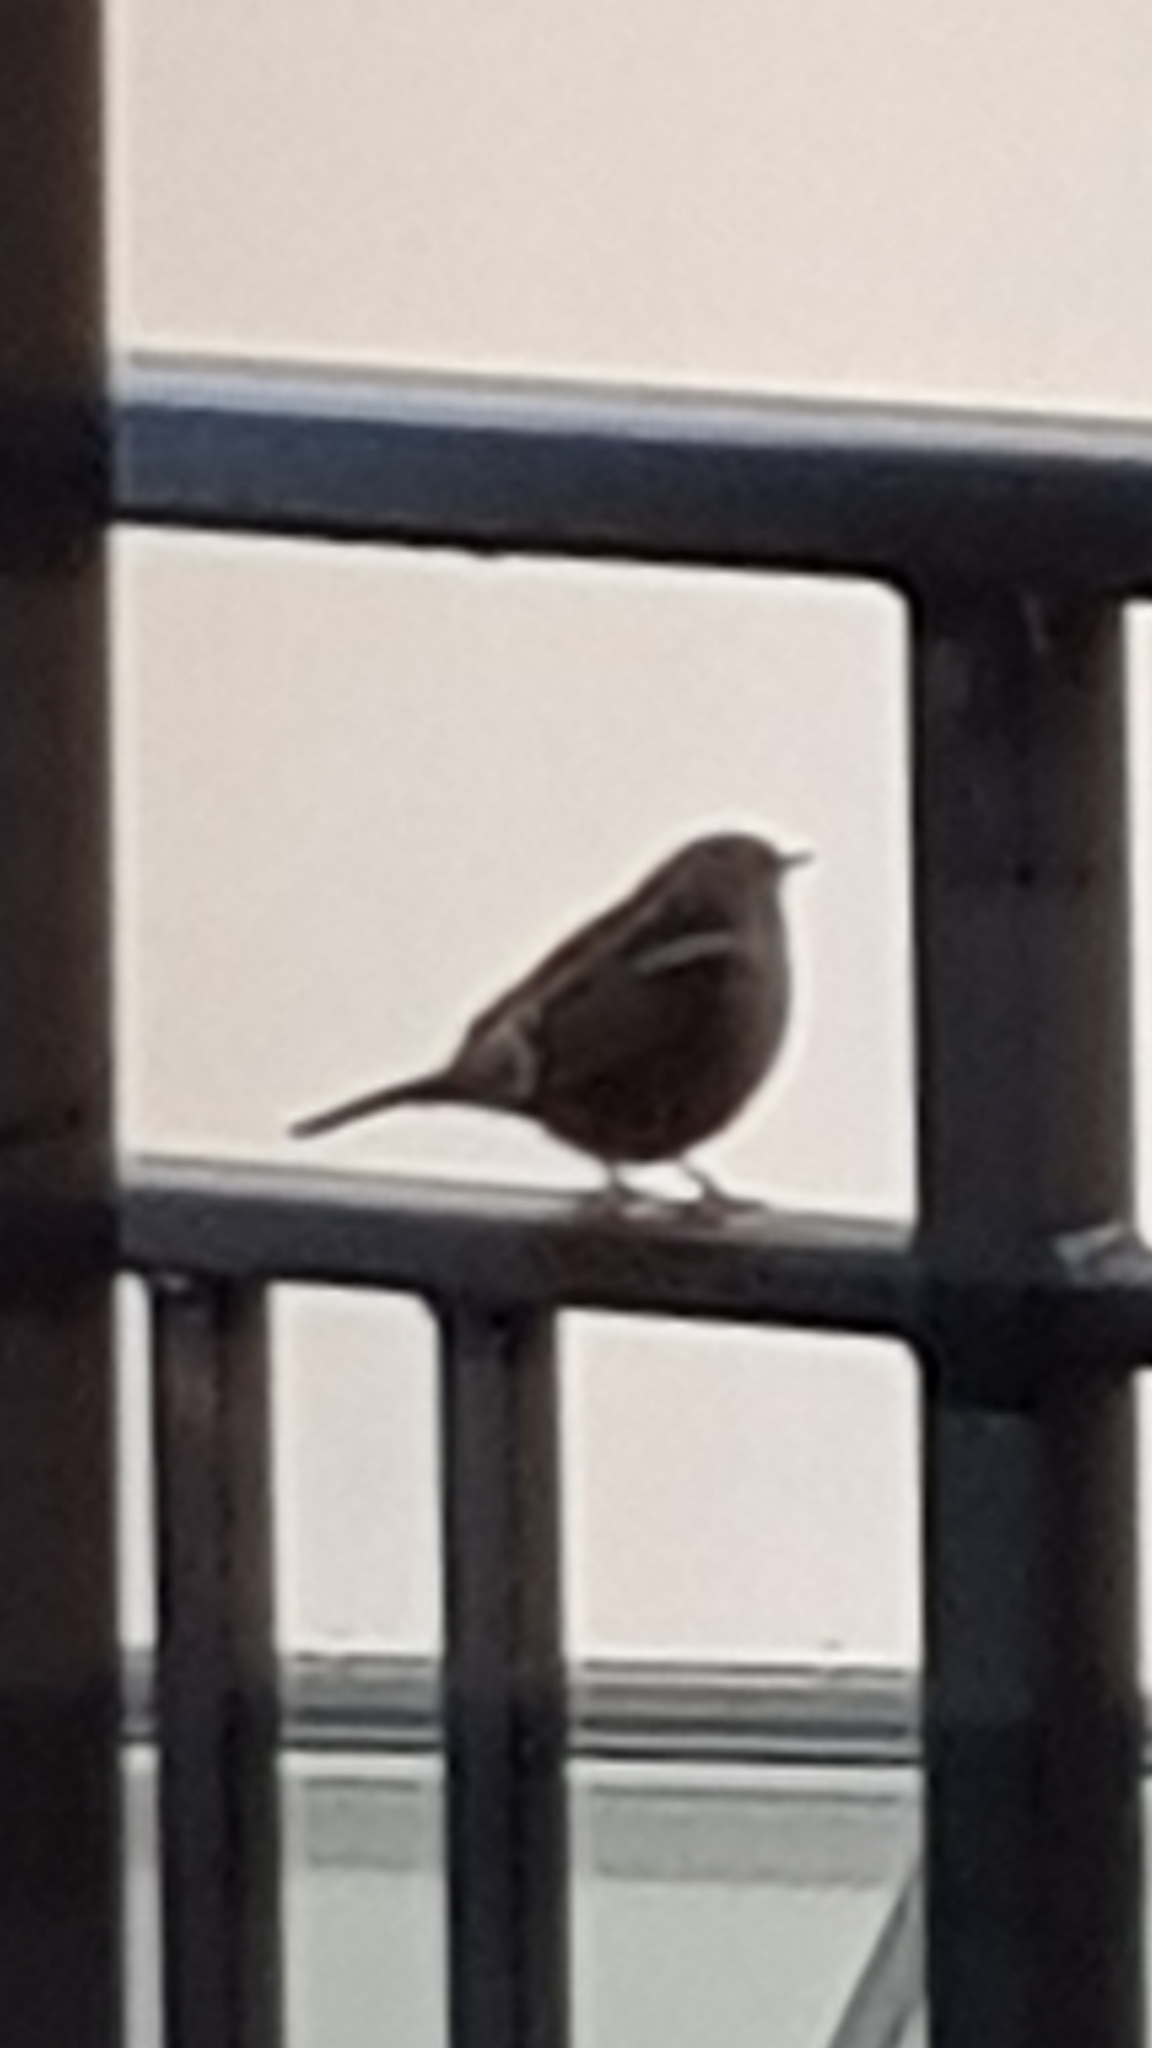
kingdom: Animalia
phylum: Chordata
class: Aves
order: Passeriformes
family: Prunellidae
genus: Prunella
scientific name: Prunella modularis
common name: Dunnock
